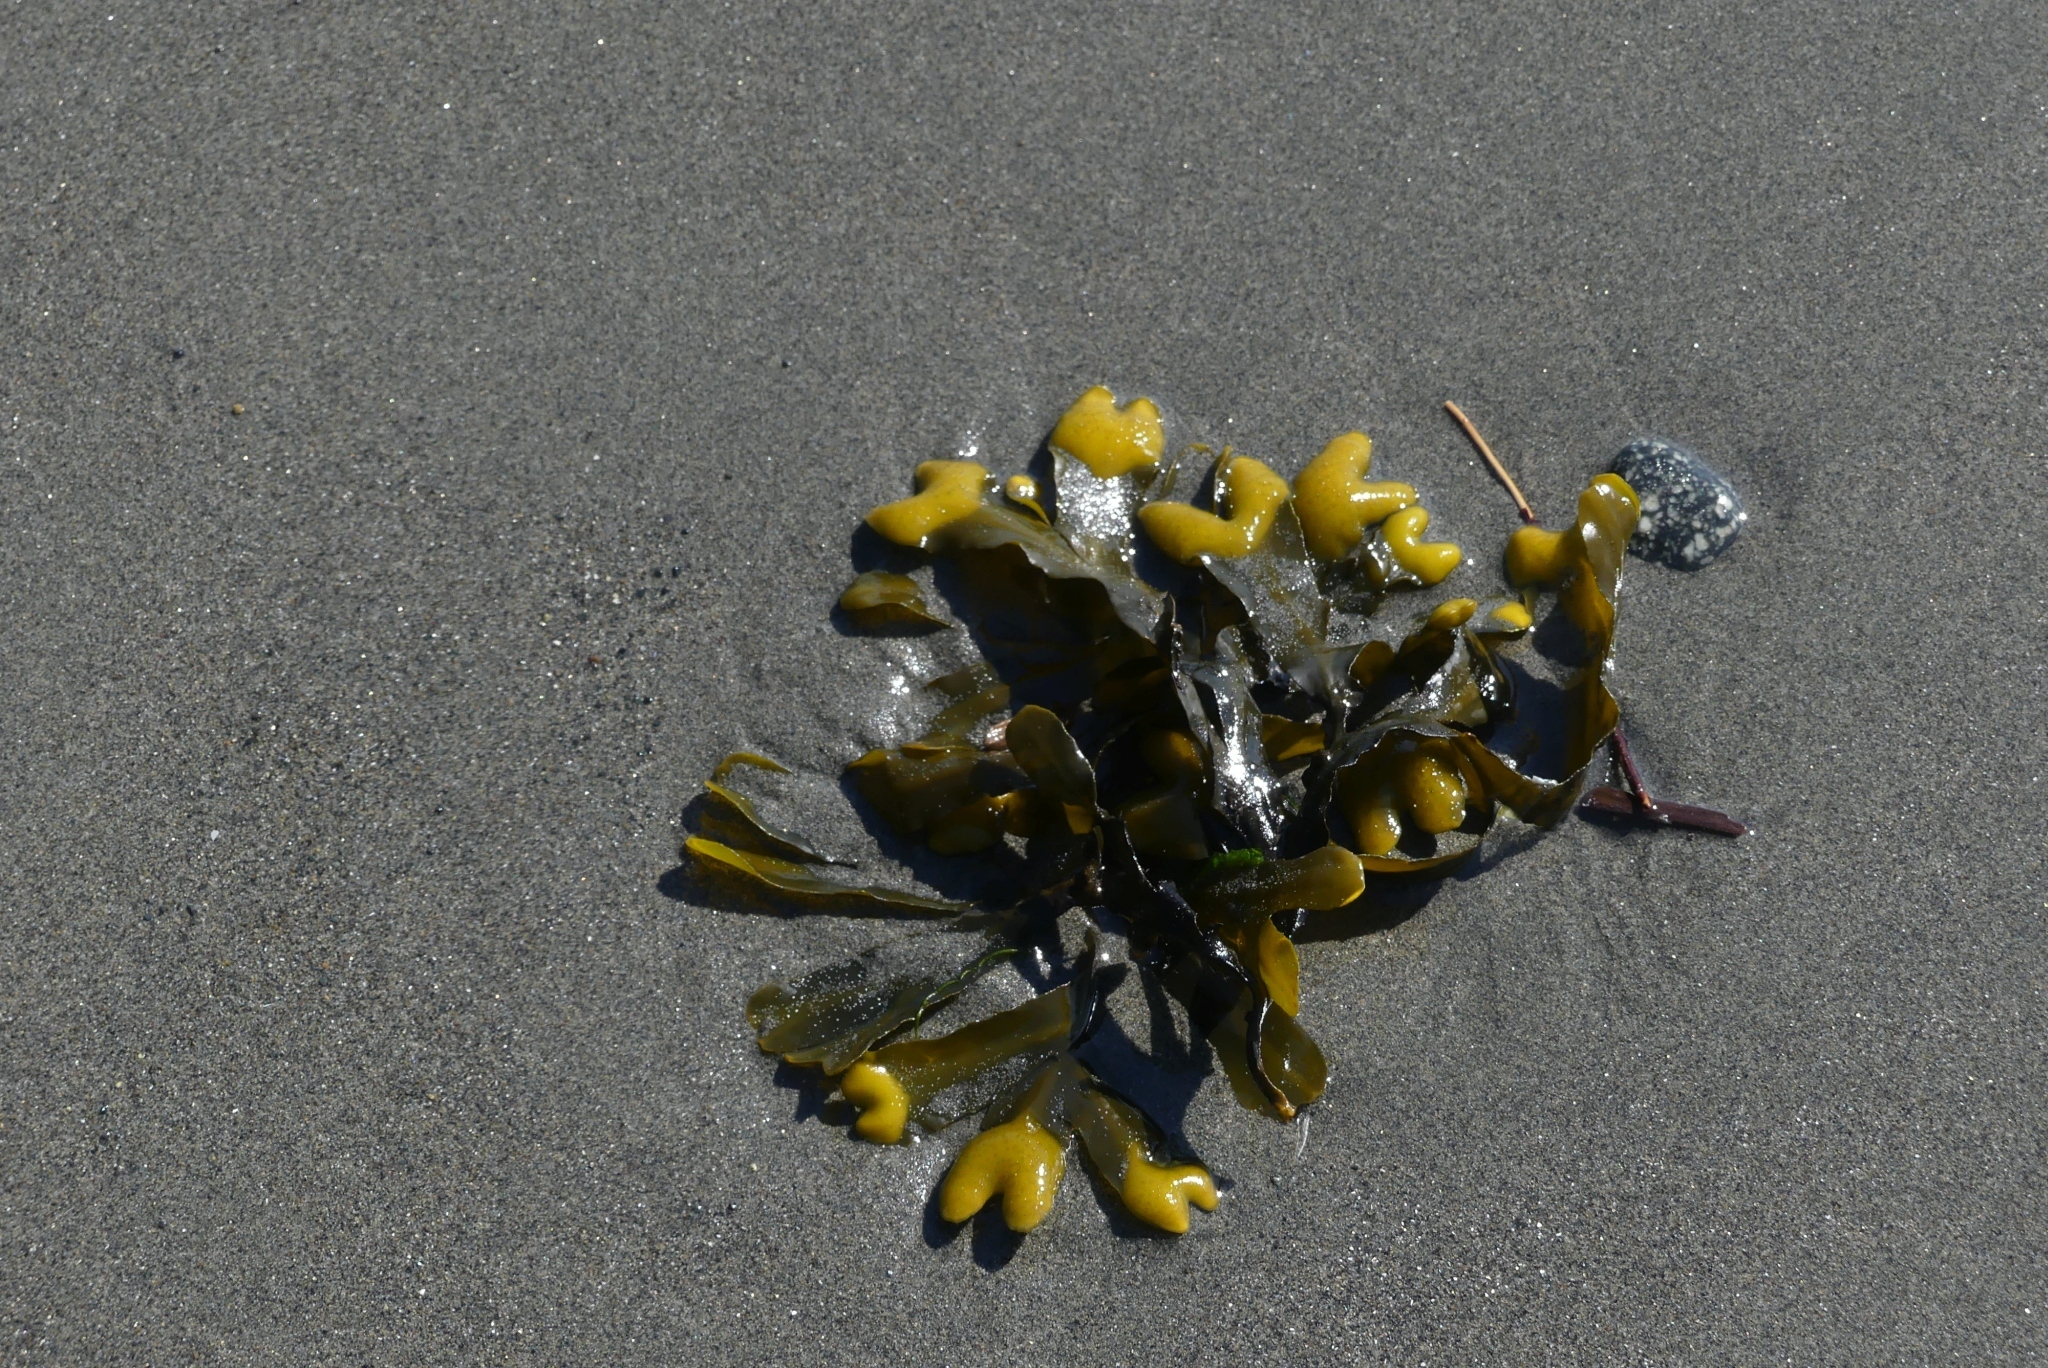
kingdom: Chromista
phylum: Ochrophyta
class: Phaeophyceae
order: Fucales
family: Fucaceae
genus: Fucus
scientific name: Fucus distichus
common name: Rockweed
